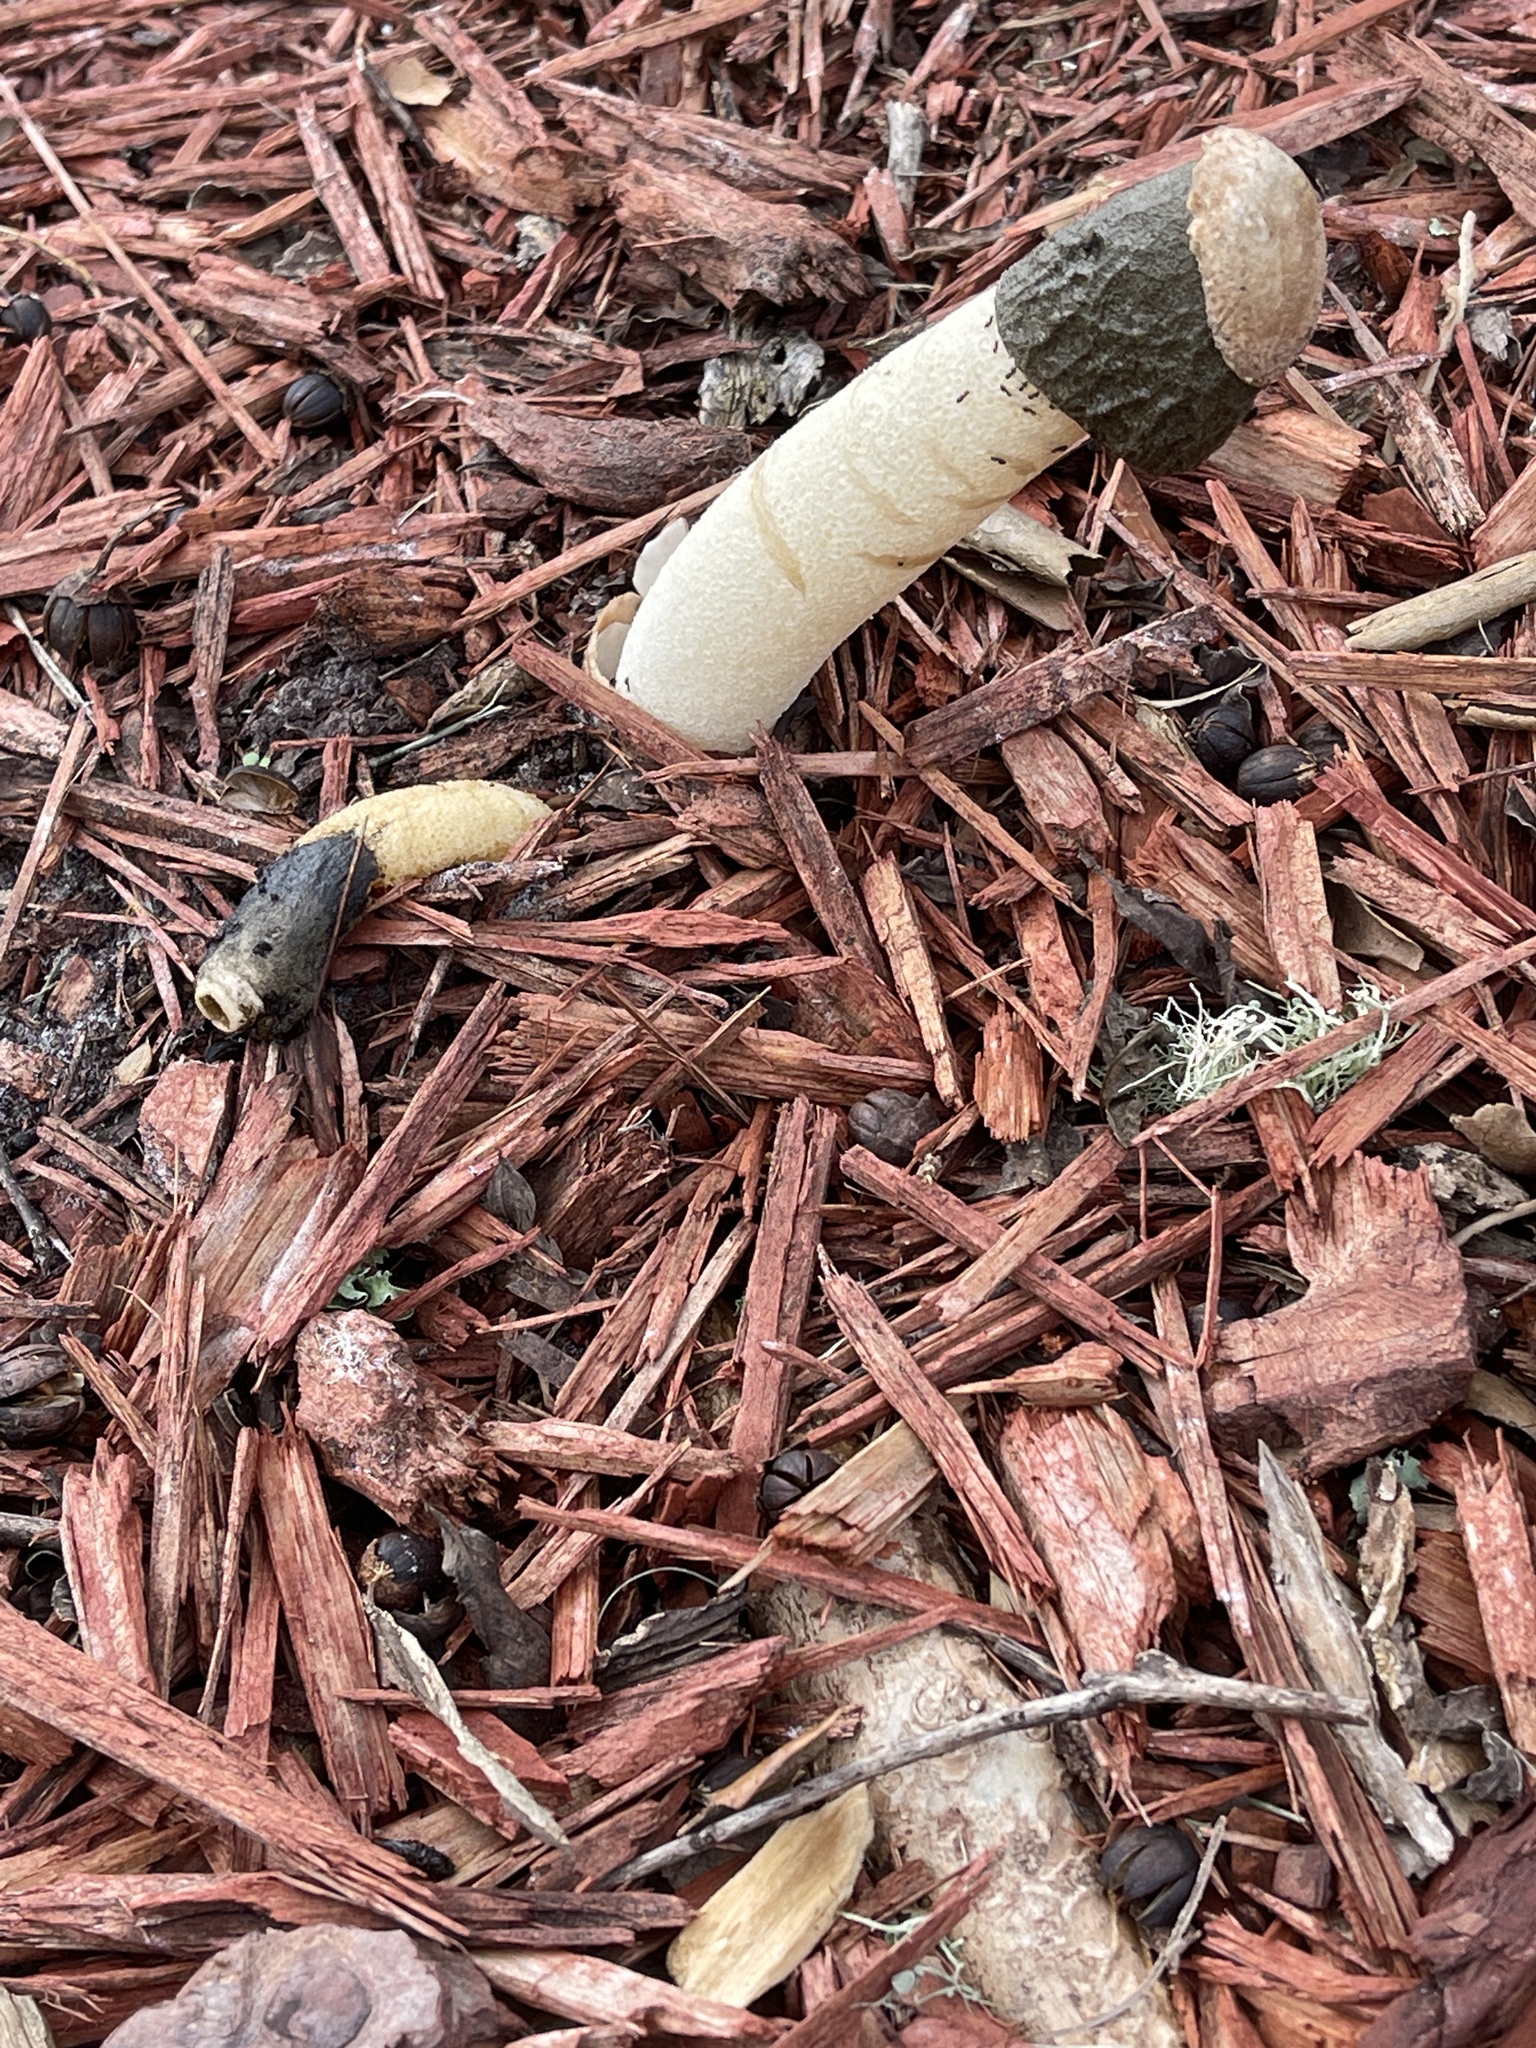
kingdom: Fungi
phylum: Basidiomycota
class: Agaricomycetes
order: Phallales
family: Phallaceae
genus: Phallus
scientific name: Phallus ravenelii
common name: Ravenel's stinkhorn
